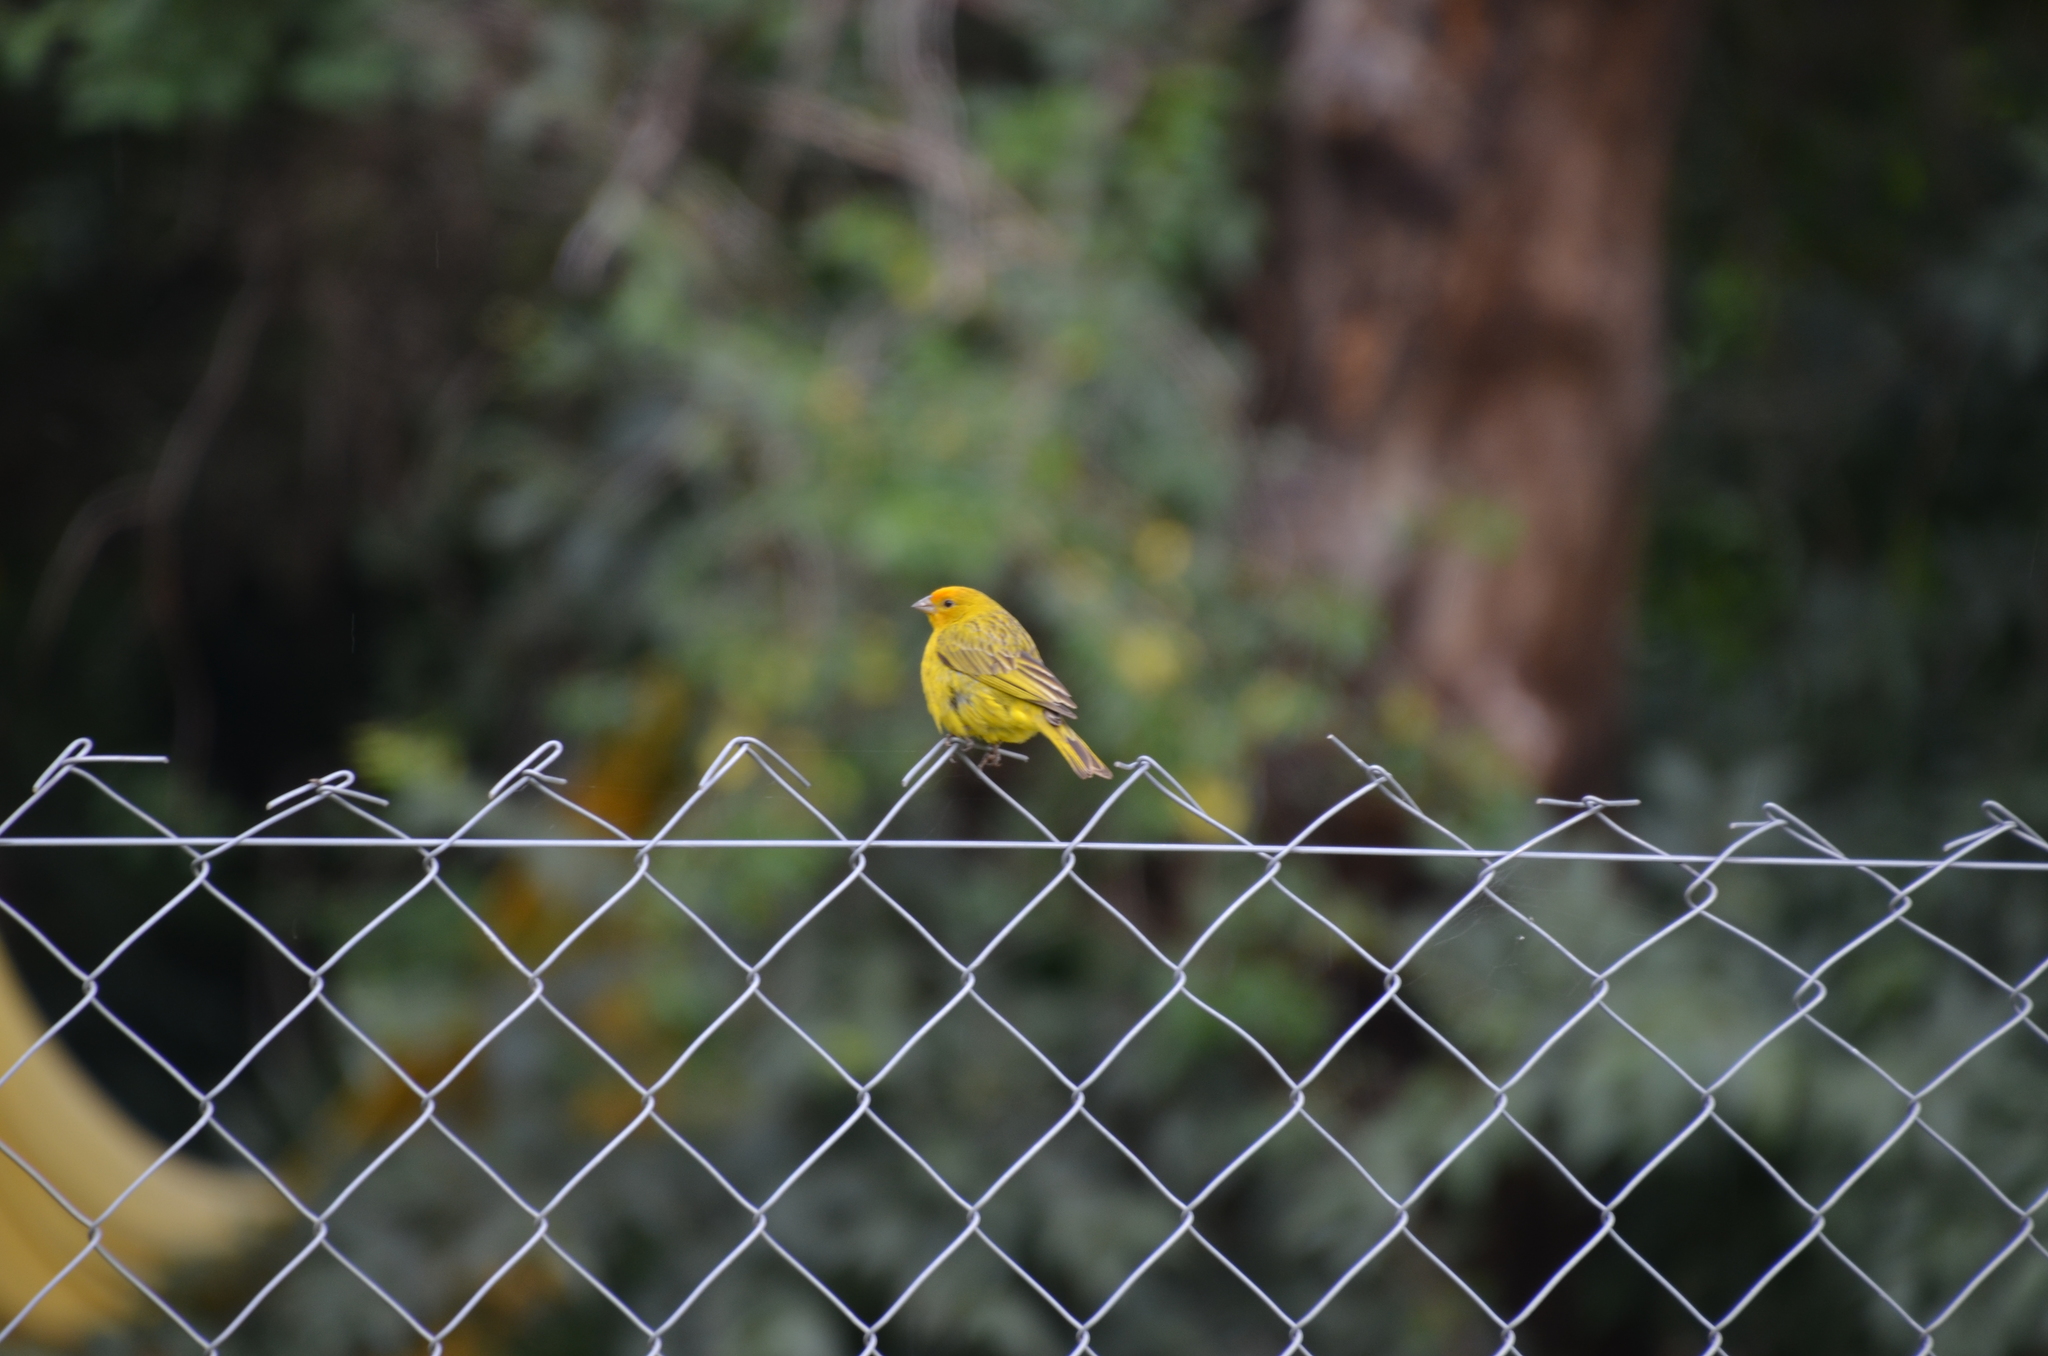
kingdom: Animalia
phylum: Chordata
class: Aves
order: Passeriformes
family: Thraupidae
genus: Sicalis
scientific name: Sicalis flaveola
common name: Saffron finch
